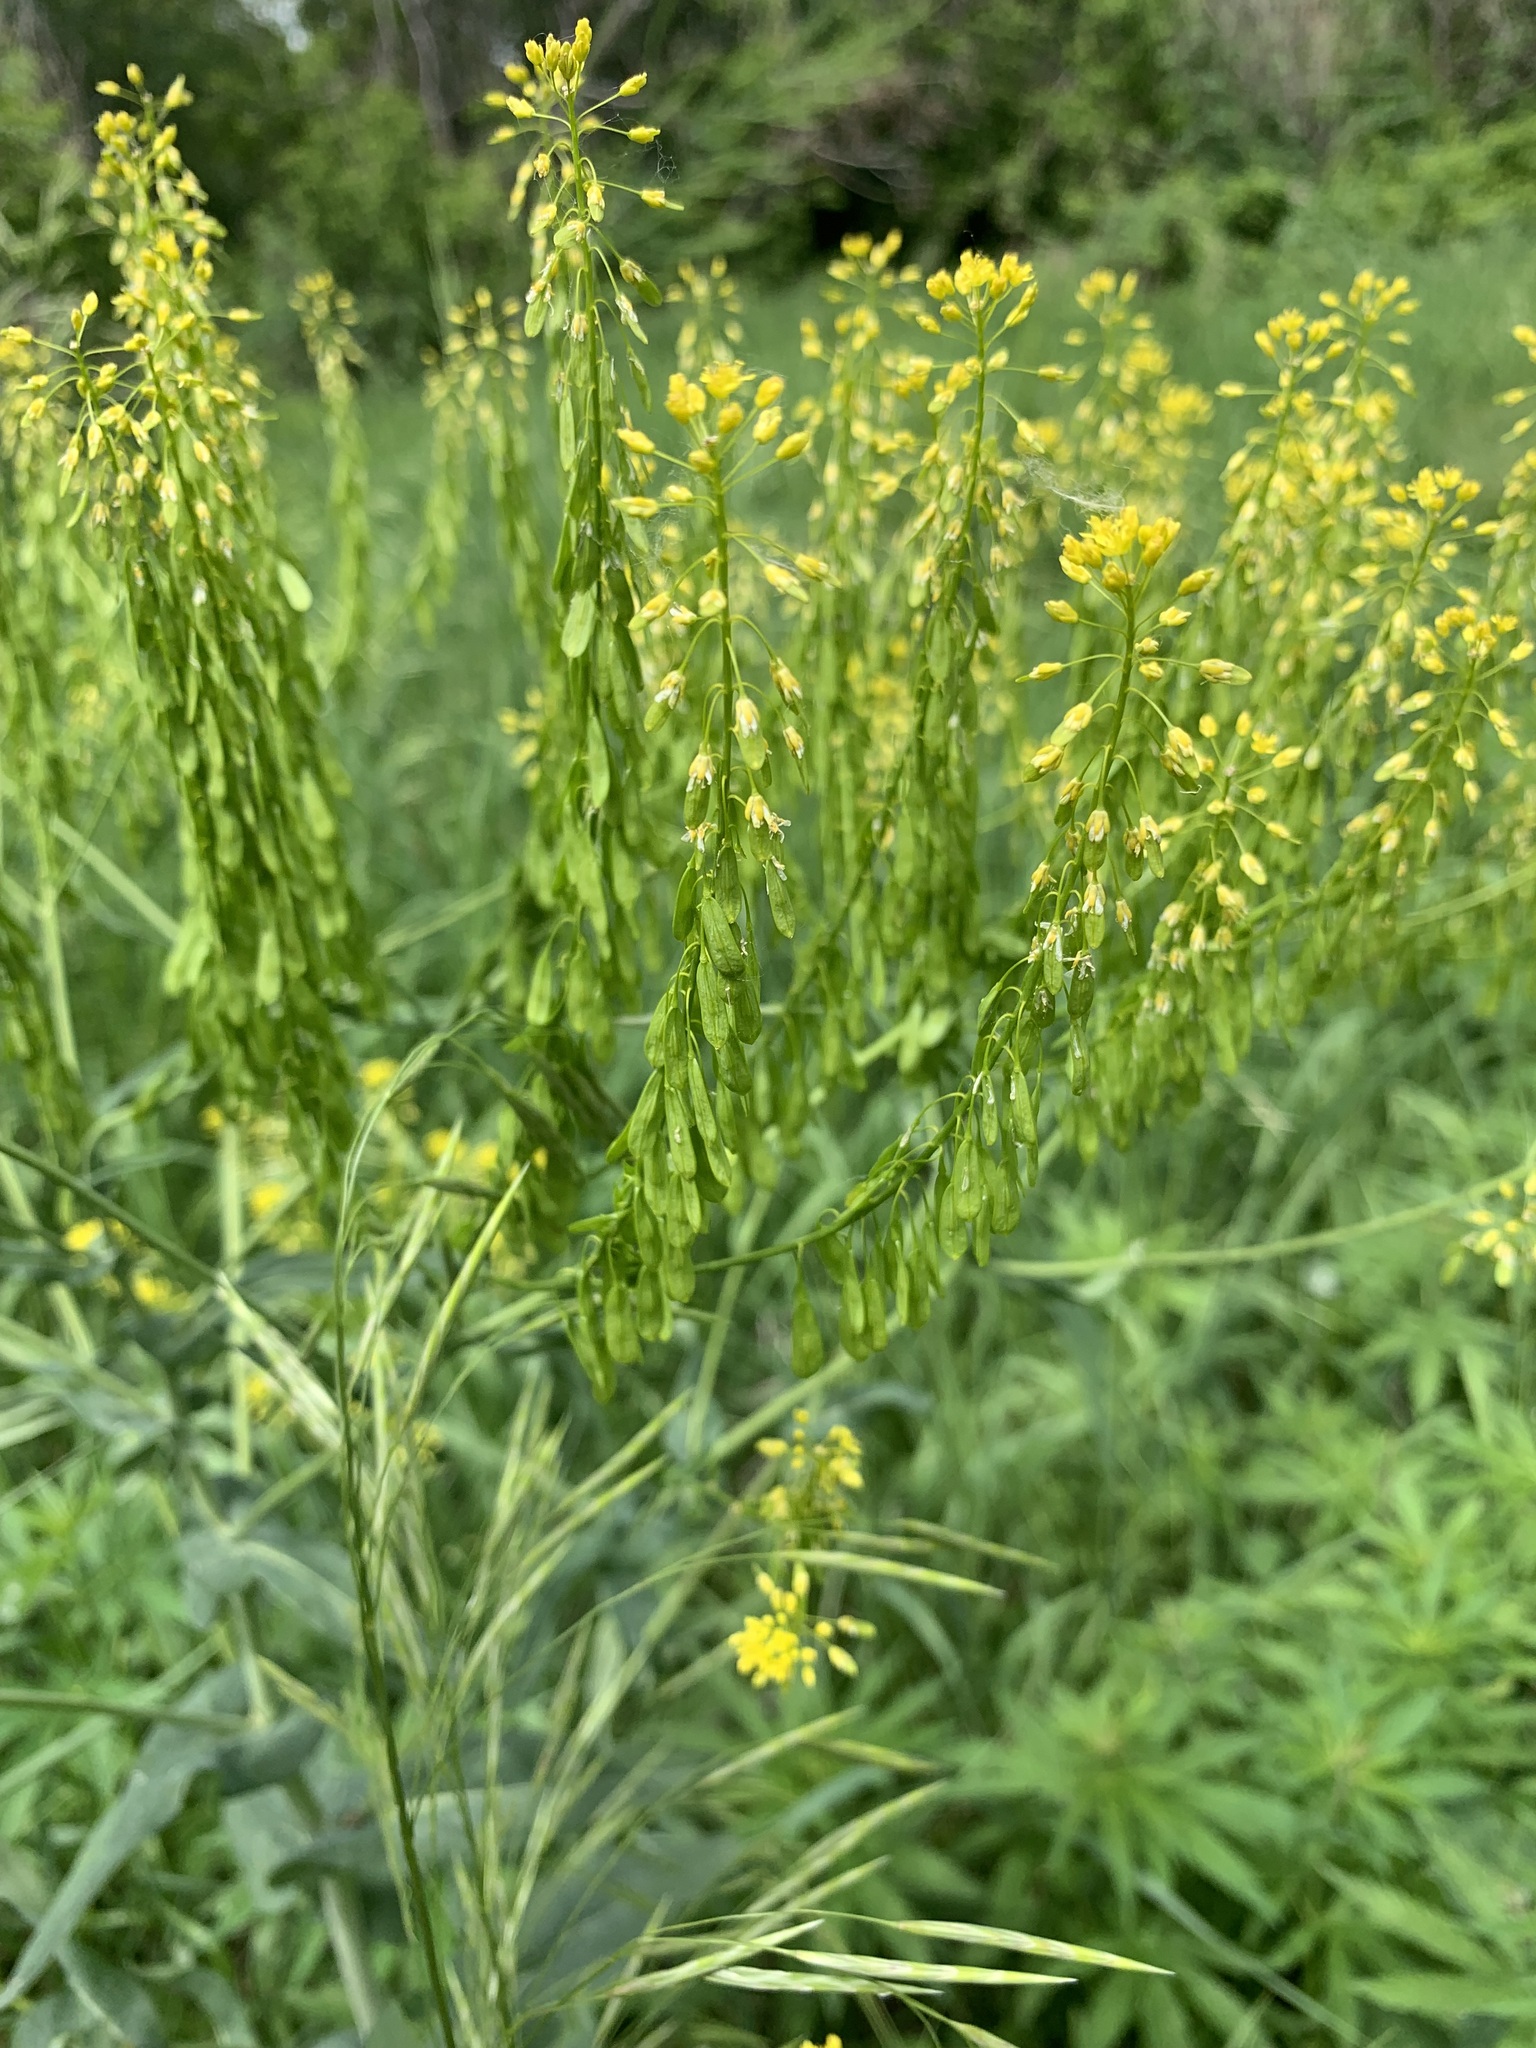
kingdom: Plantae
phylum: Tracheophyta
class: Magnoliopsida
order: Brassicales
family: Brassicaceae
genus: Isatis
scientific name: Isatis costata
